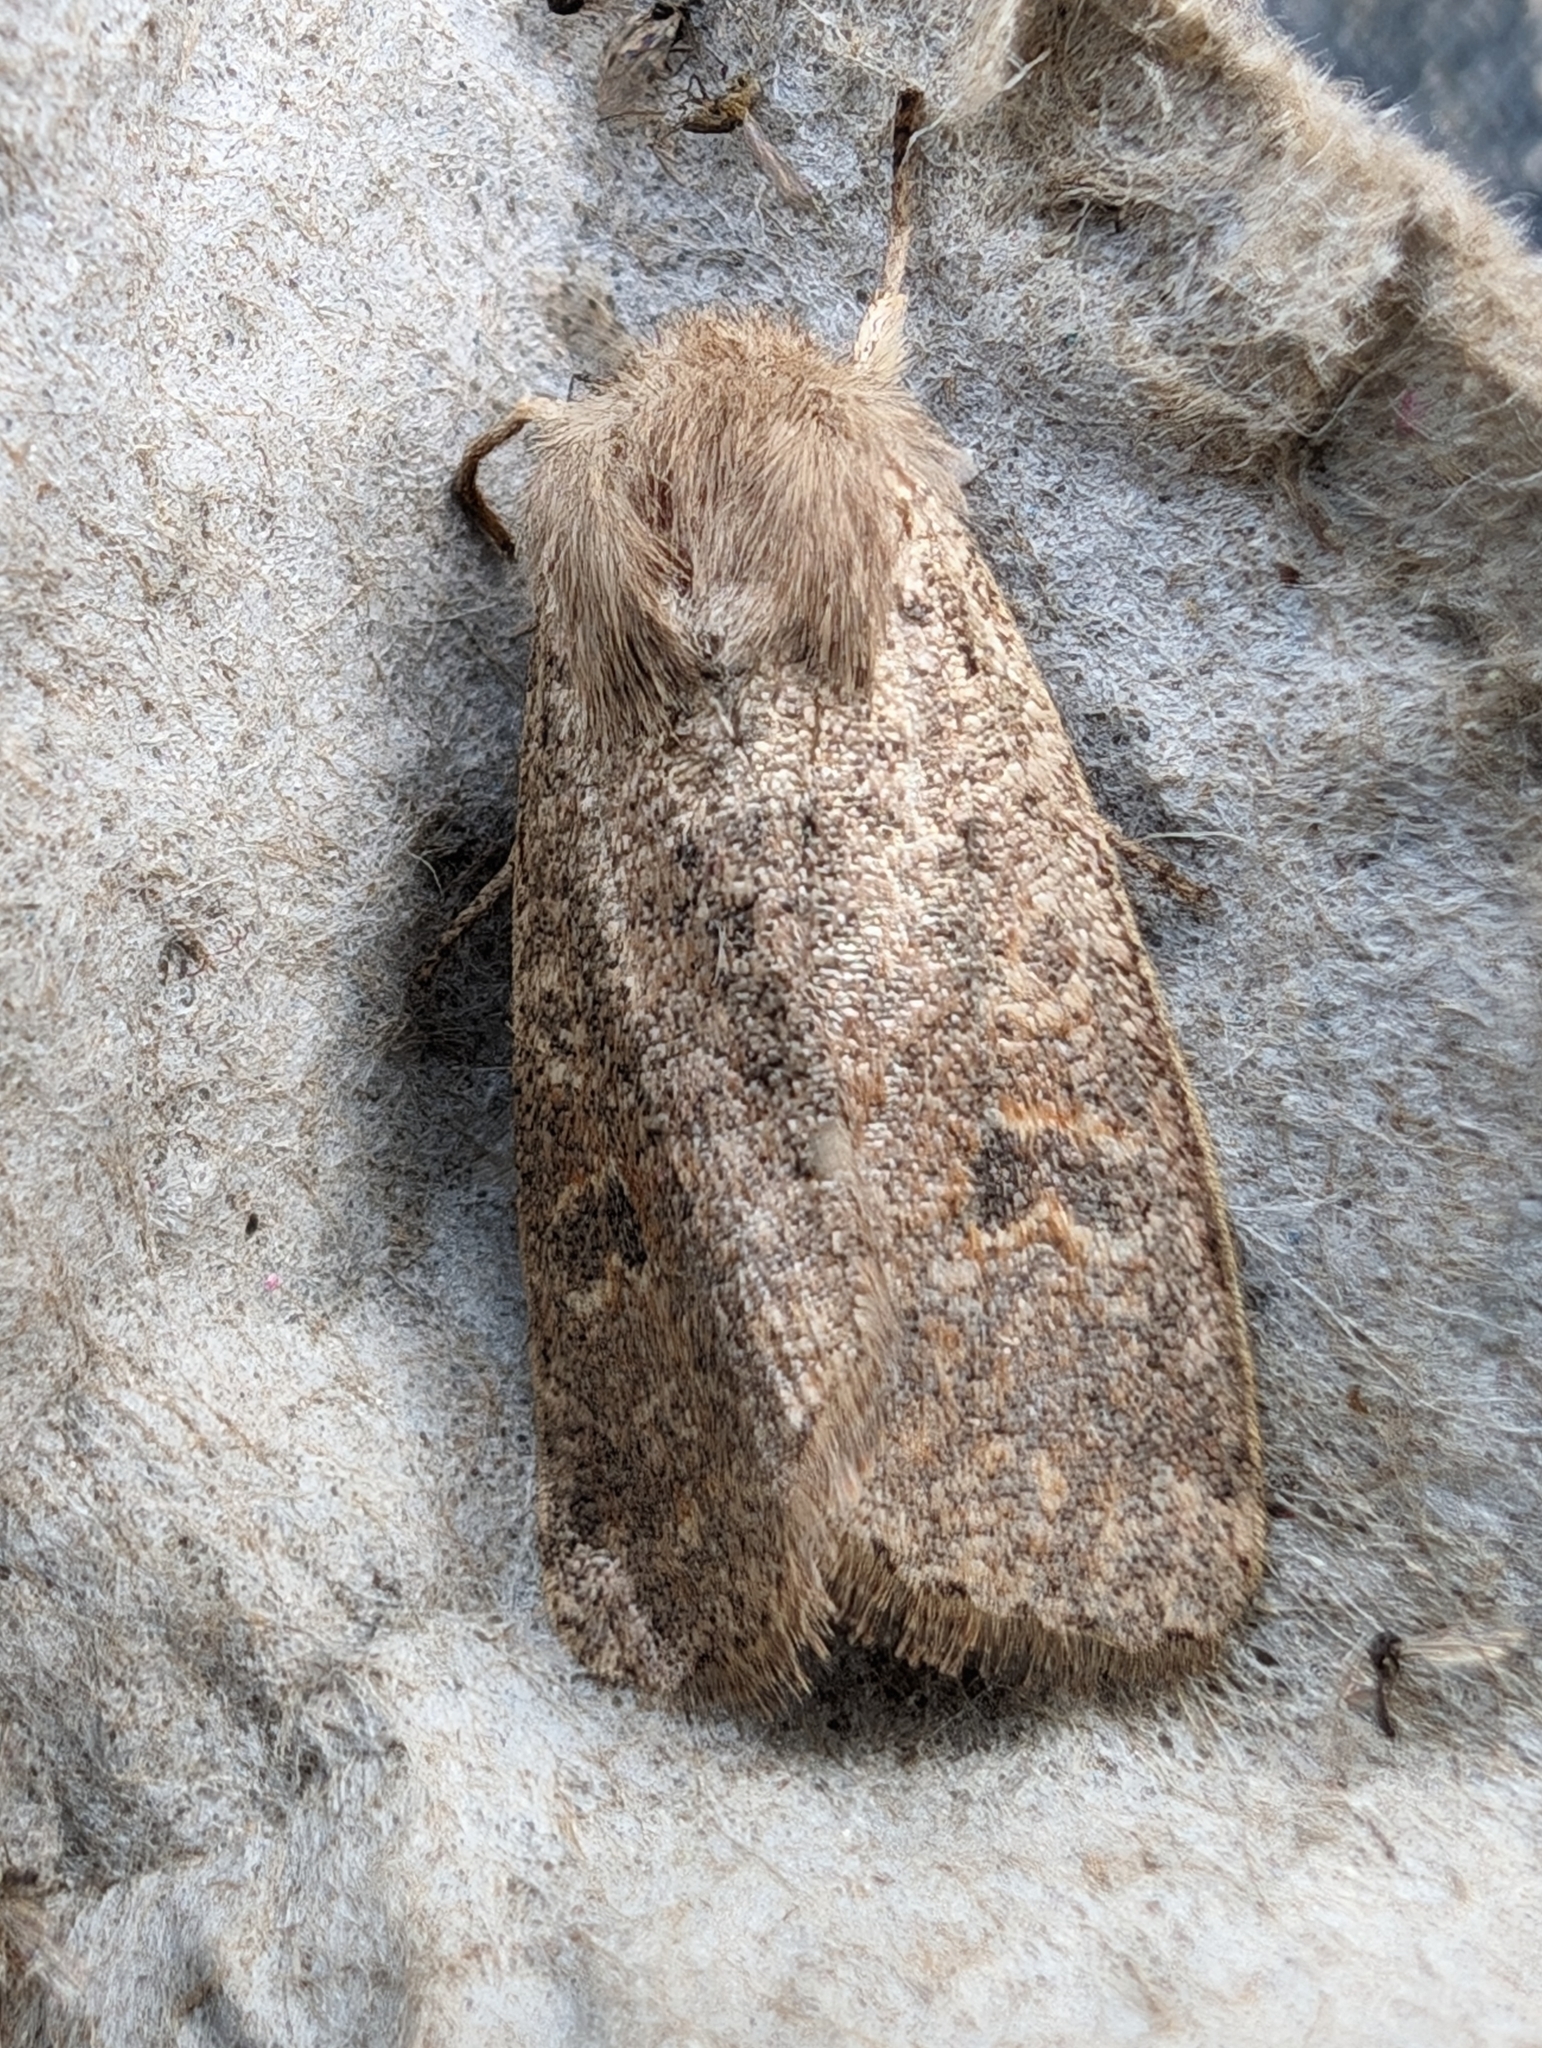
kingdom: Animalia
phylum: Arthropoda
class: Insecta
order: Lepidoptera
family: Noctuidae
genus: Orthosia
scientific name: Orthosia cruda
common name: Small quaker
